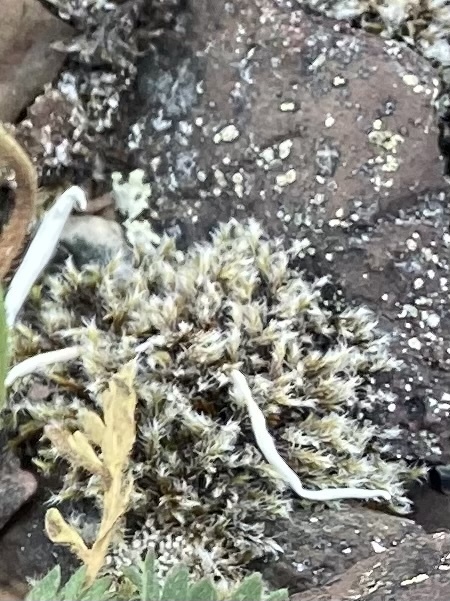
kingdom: Plantae
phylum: Bryophyta
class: Bryopsida
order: Grimmiales
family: Grimmiaceae
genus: Racomitrium
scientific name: Racomitrium lanuginosum
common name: Hoary rock moss
